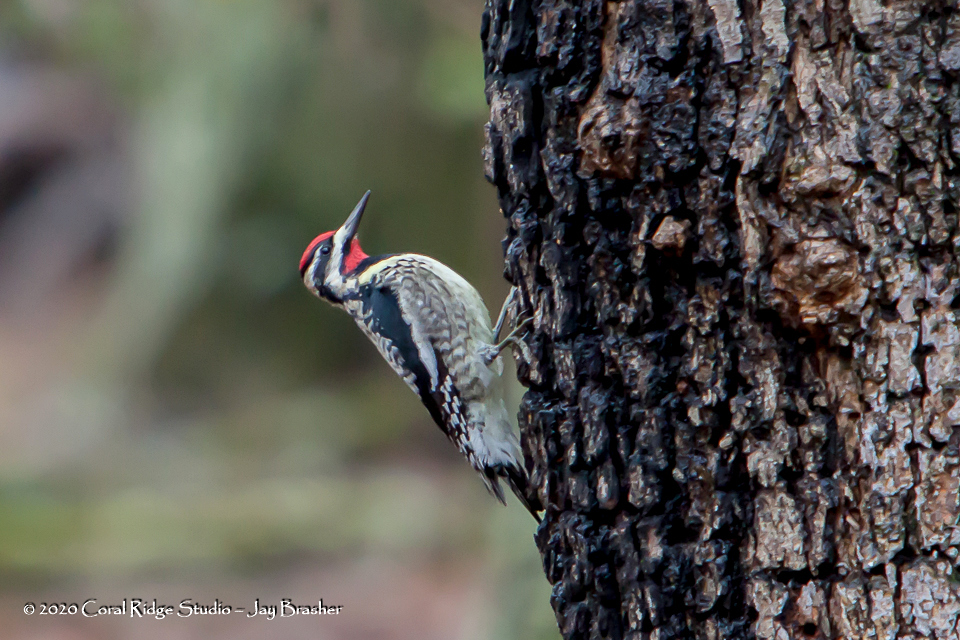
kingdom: Animalia
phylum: Chordata
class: Aves
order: Piciformes
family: Picidae
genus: Sphyrapicus
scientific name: Sphyrapicus varius
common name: Yellow-bellied sapsucker
